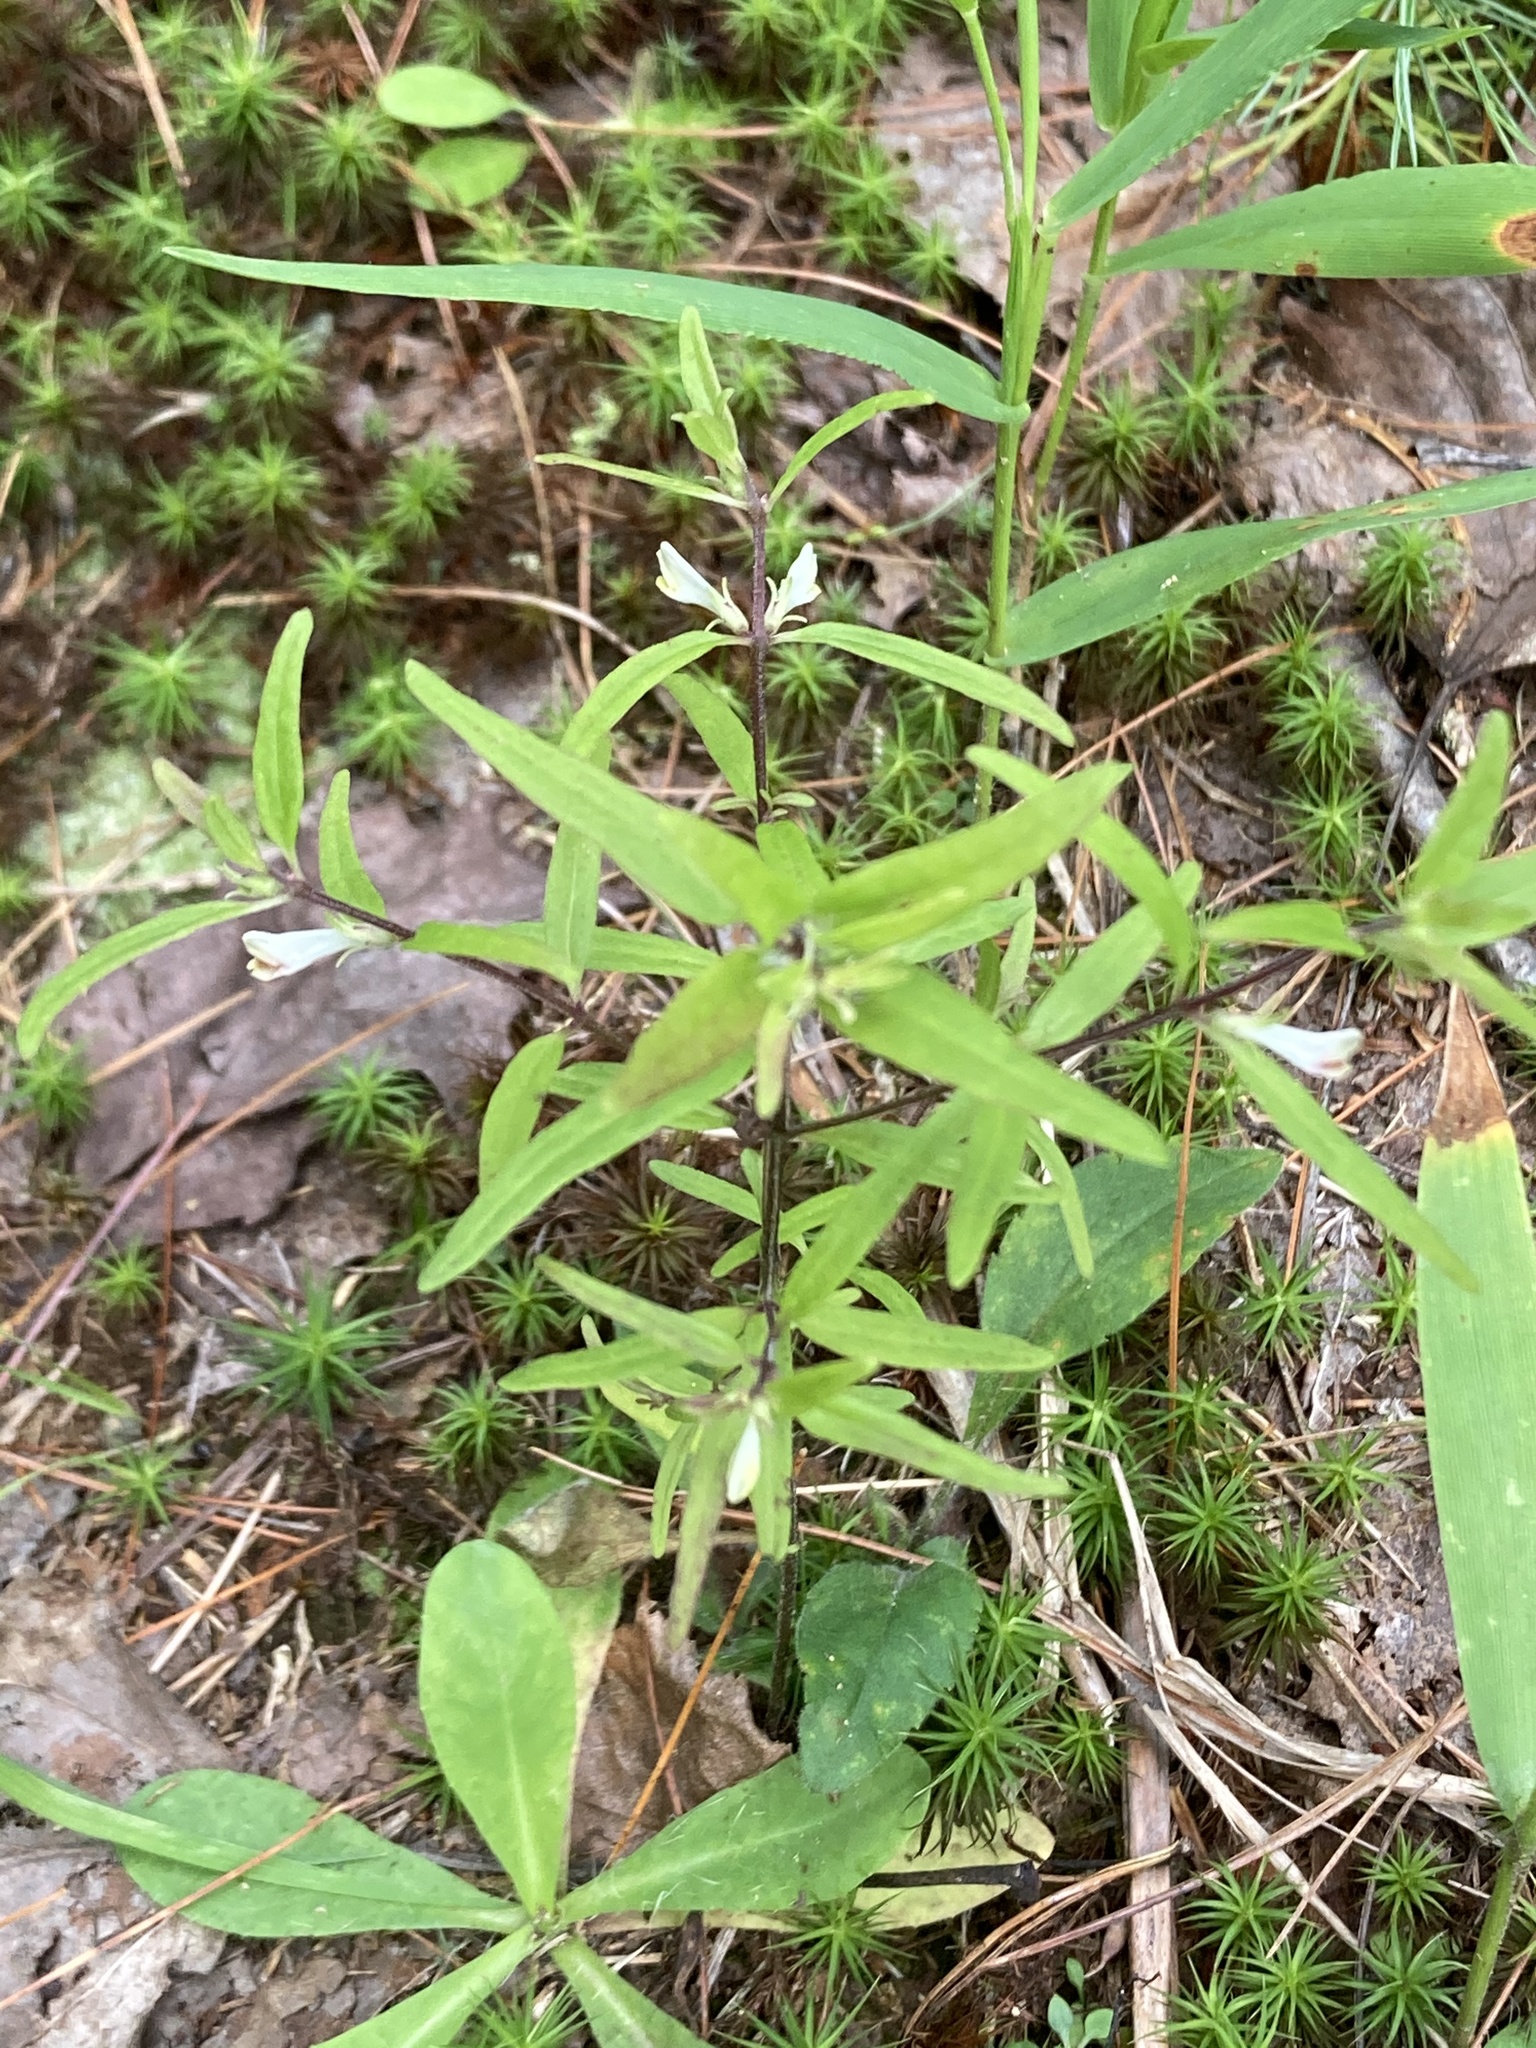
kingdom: Plantae
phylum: Tracheophyta
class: Magnoliopsida
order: Lamiales
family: Orobanchaceae
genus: Melampyrum
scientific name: Melampyrum lineare
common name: American cow-wheat
